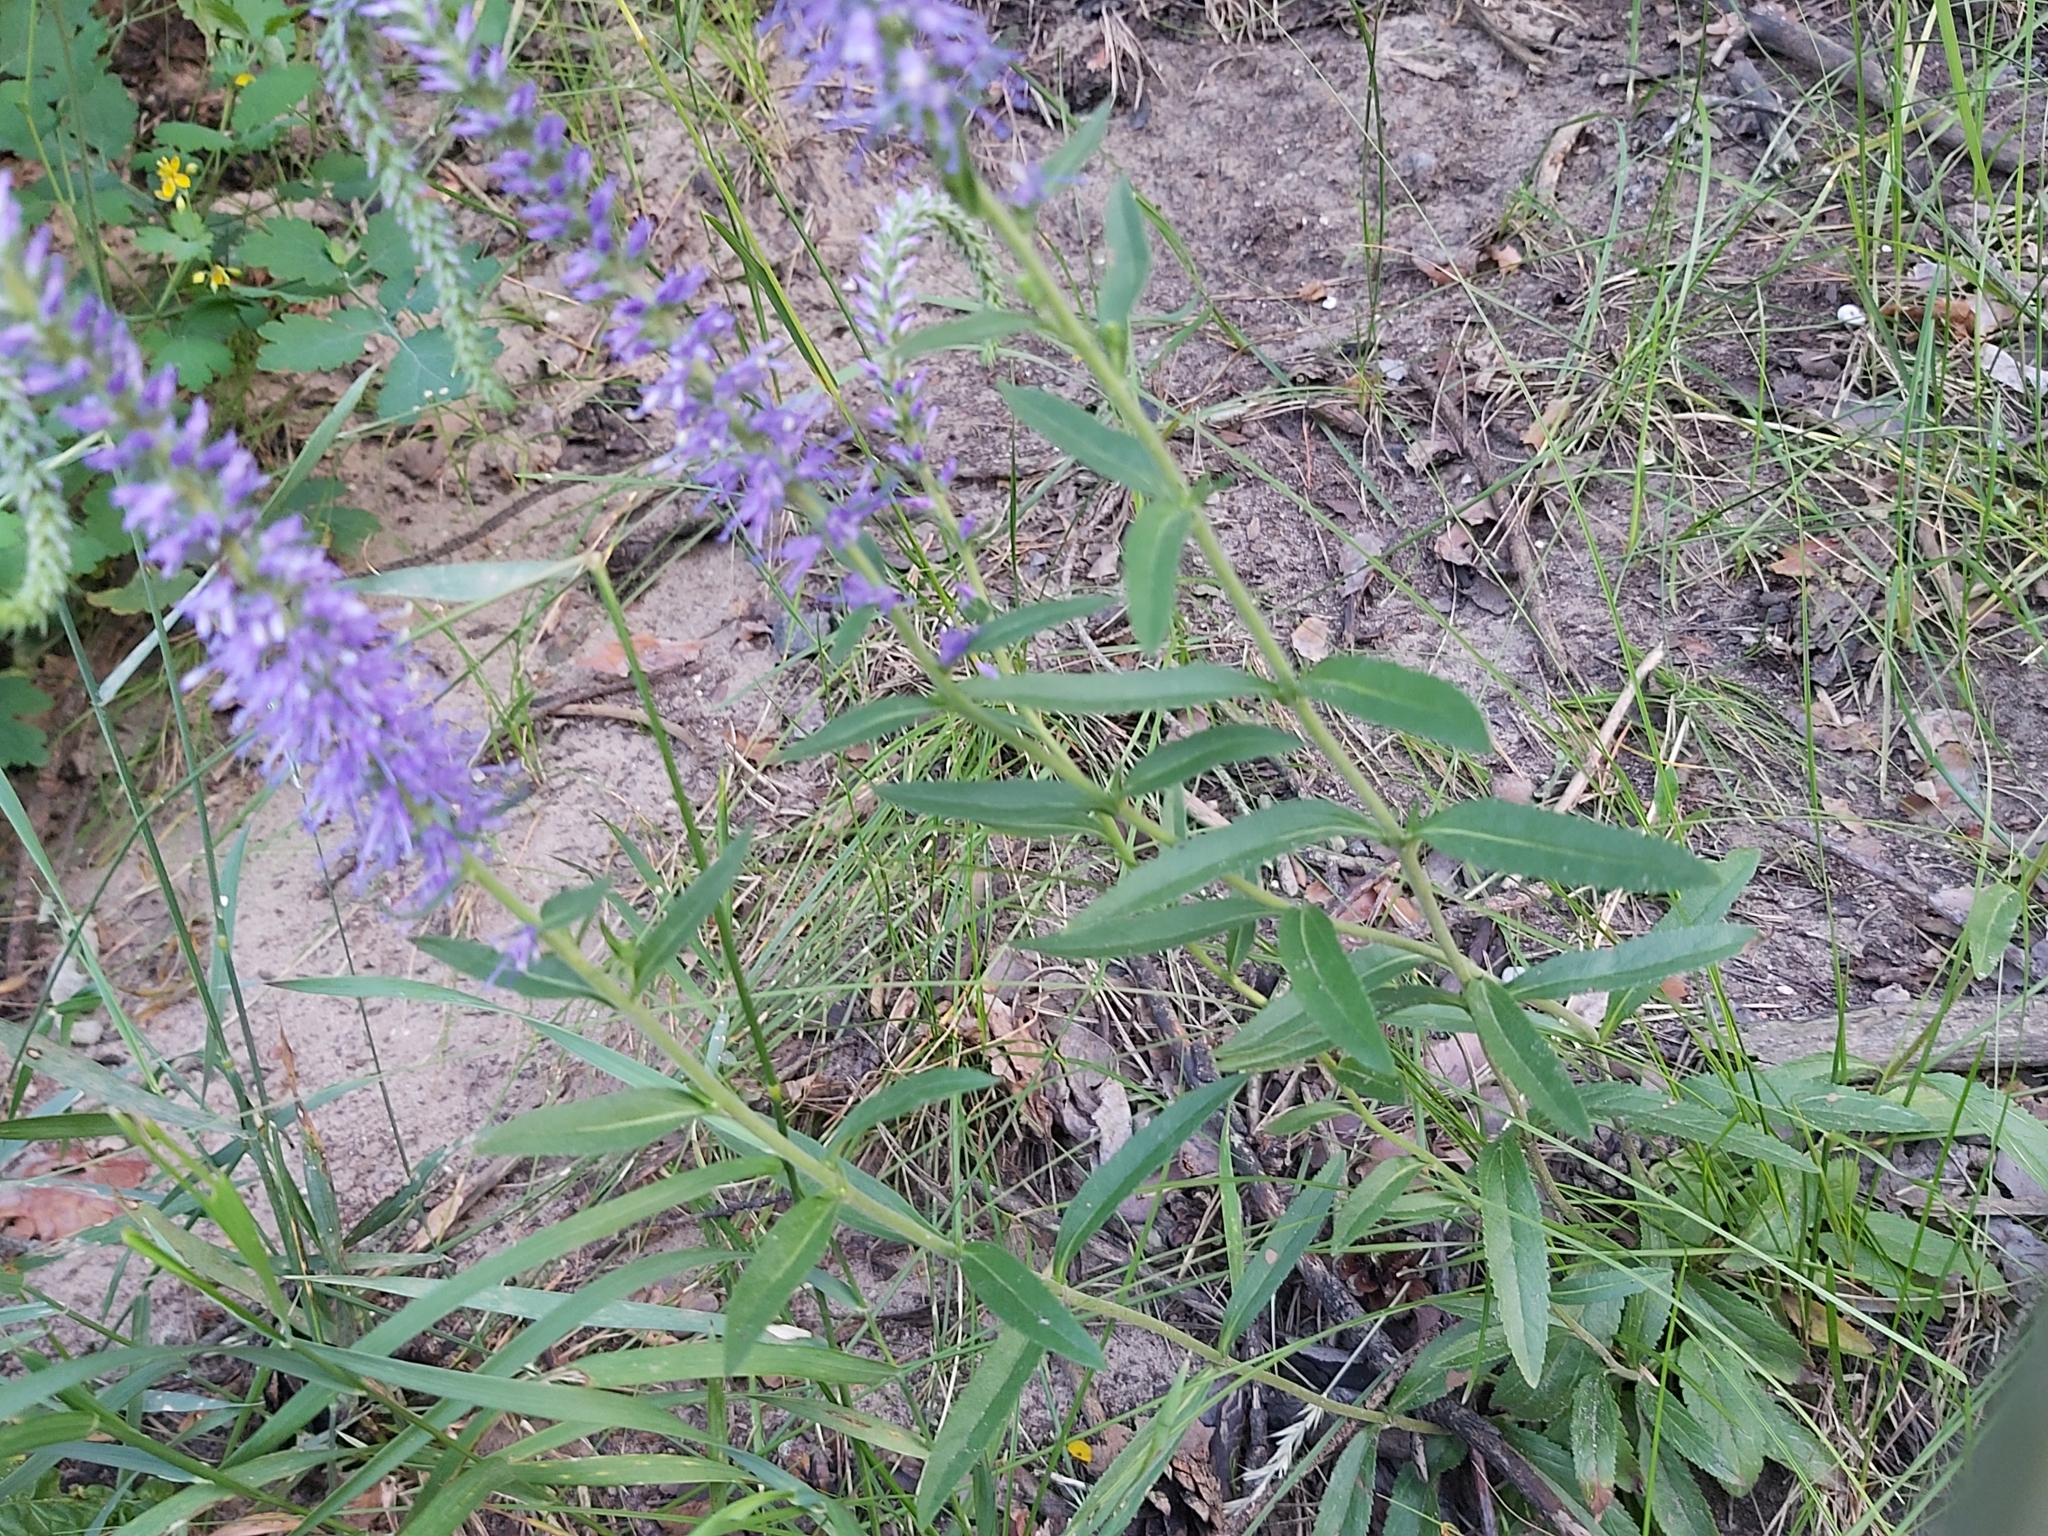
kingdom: Plantae
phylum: Tracheophyta
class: Magnoliopsida
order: Lamiales
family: Plantaginaceae
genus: Veronica
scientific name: Veronica spicata
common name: Spiked speedwell
